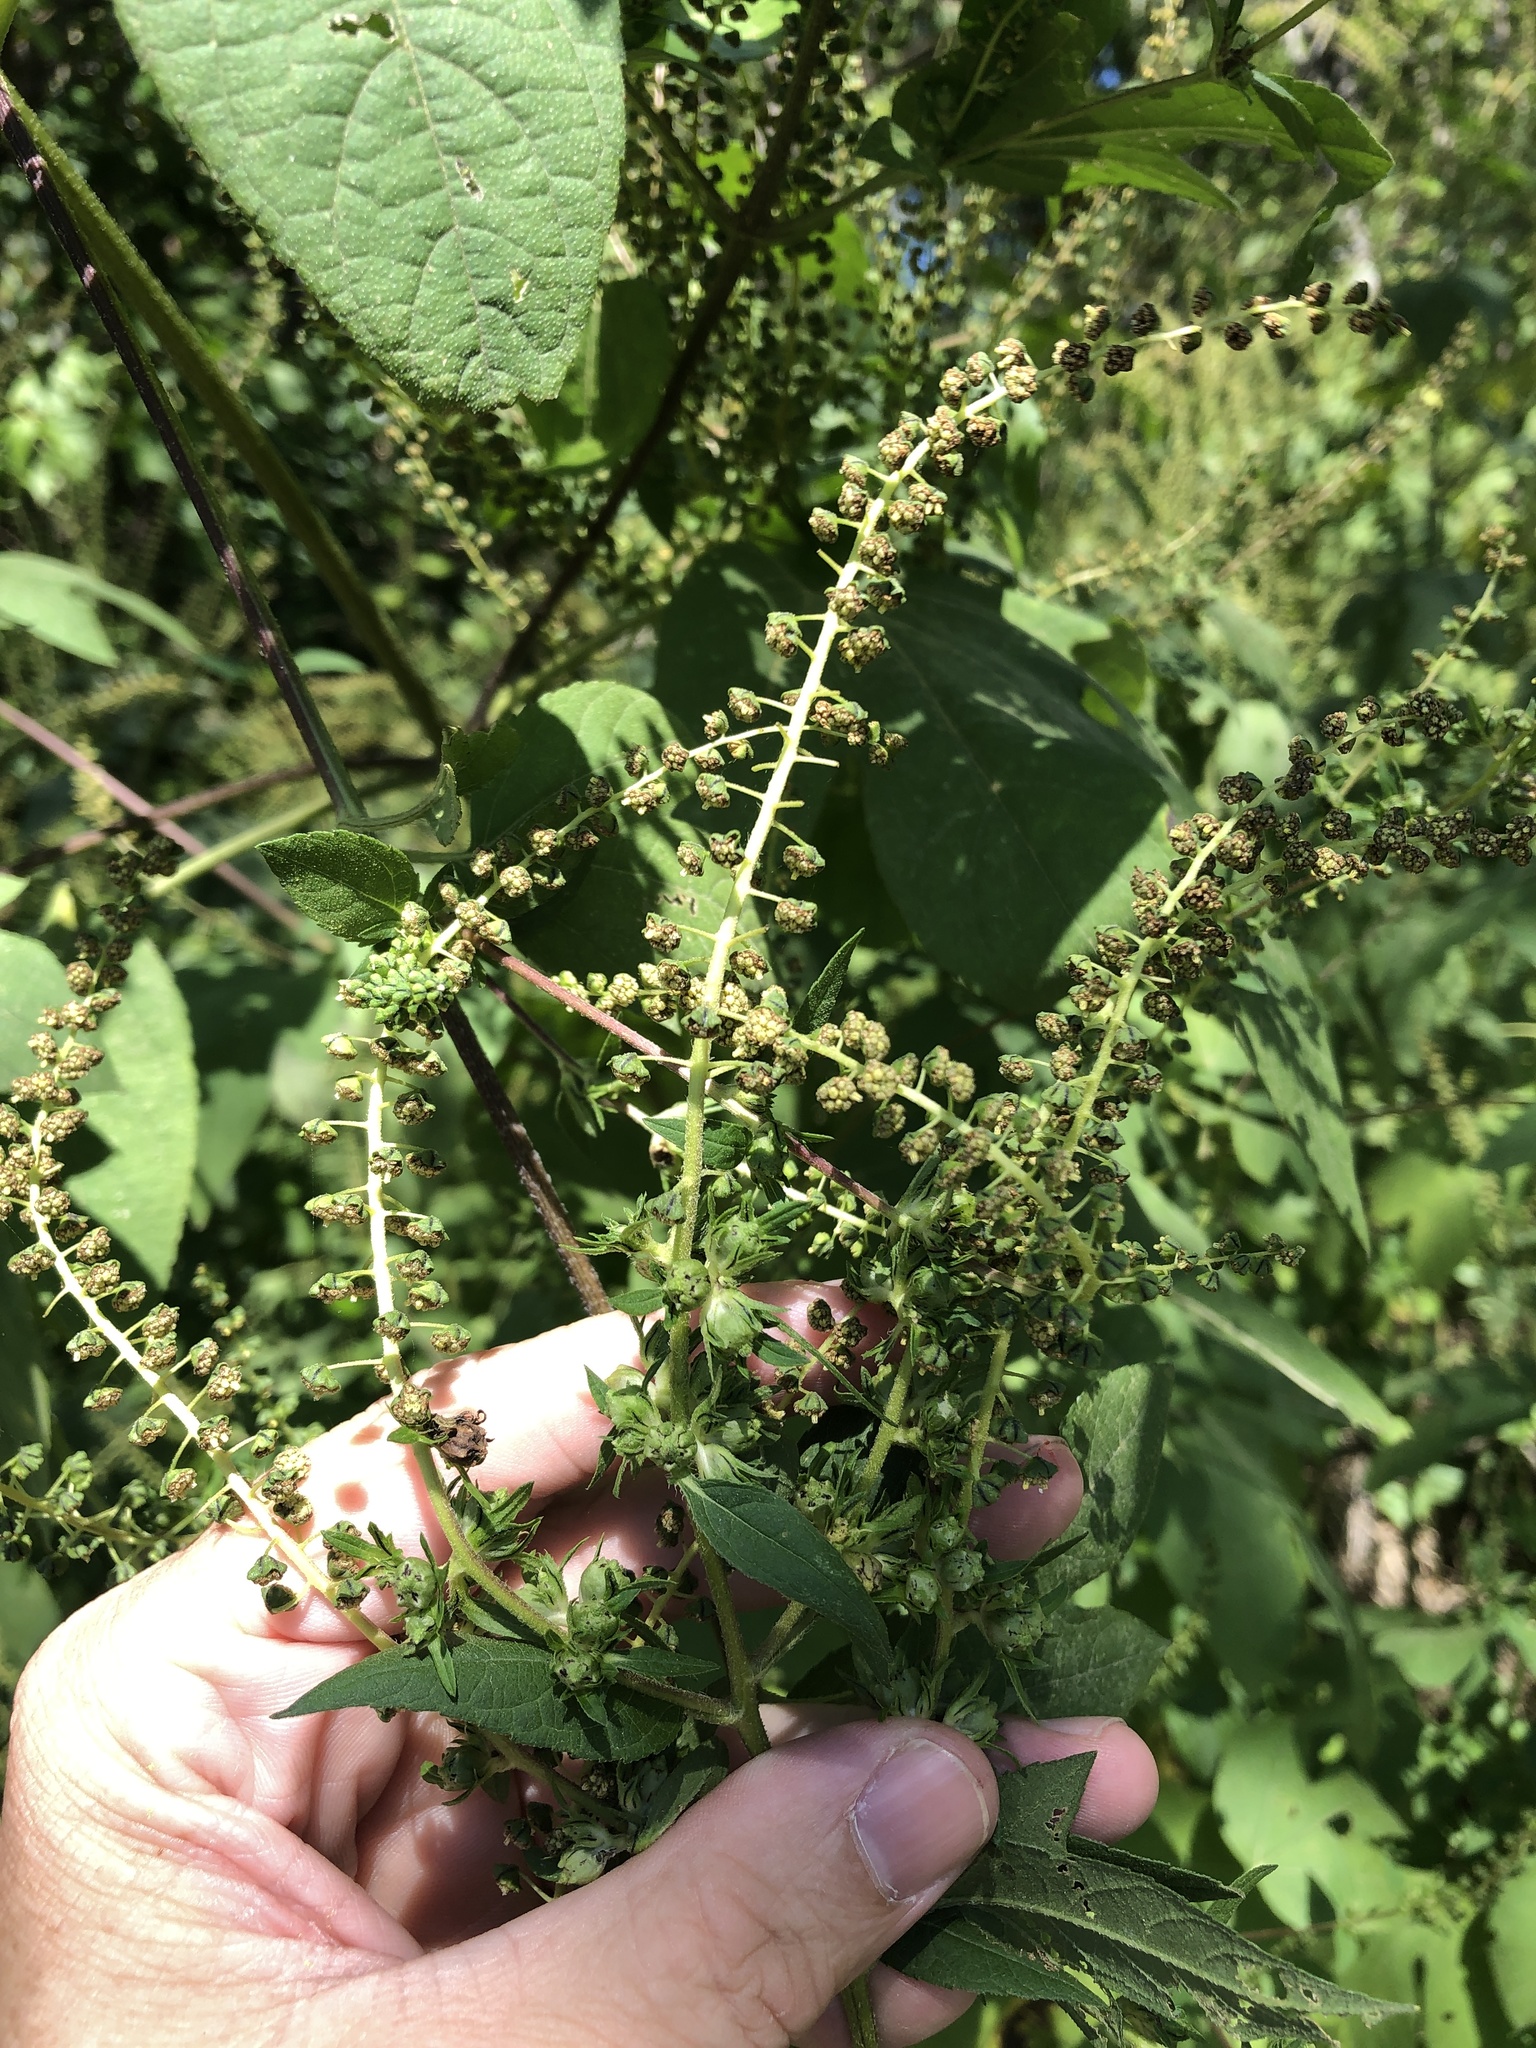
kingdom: Plantae
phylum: Tracheophyta
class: Magnoliopsida
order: Asterales
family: Asteraceae
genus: Ambrosia
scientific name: Ambrosia trifida
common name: Giant ragweed
